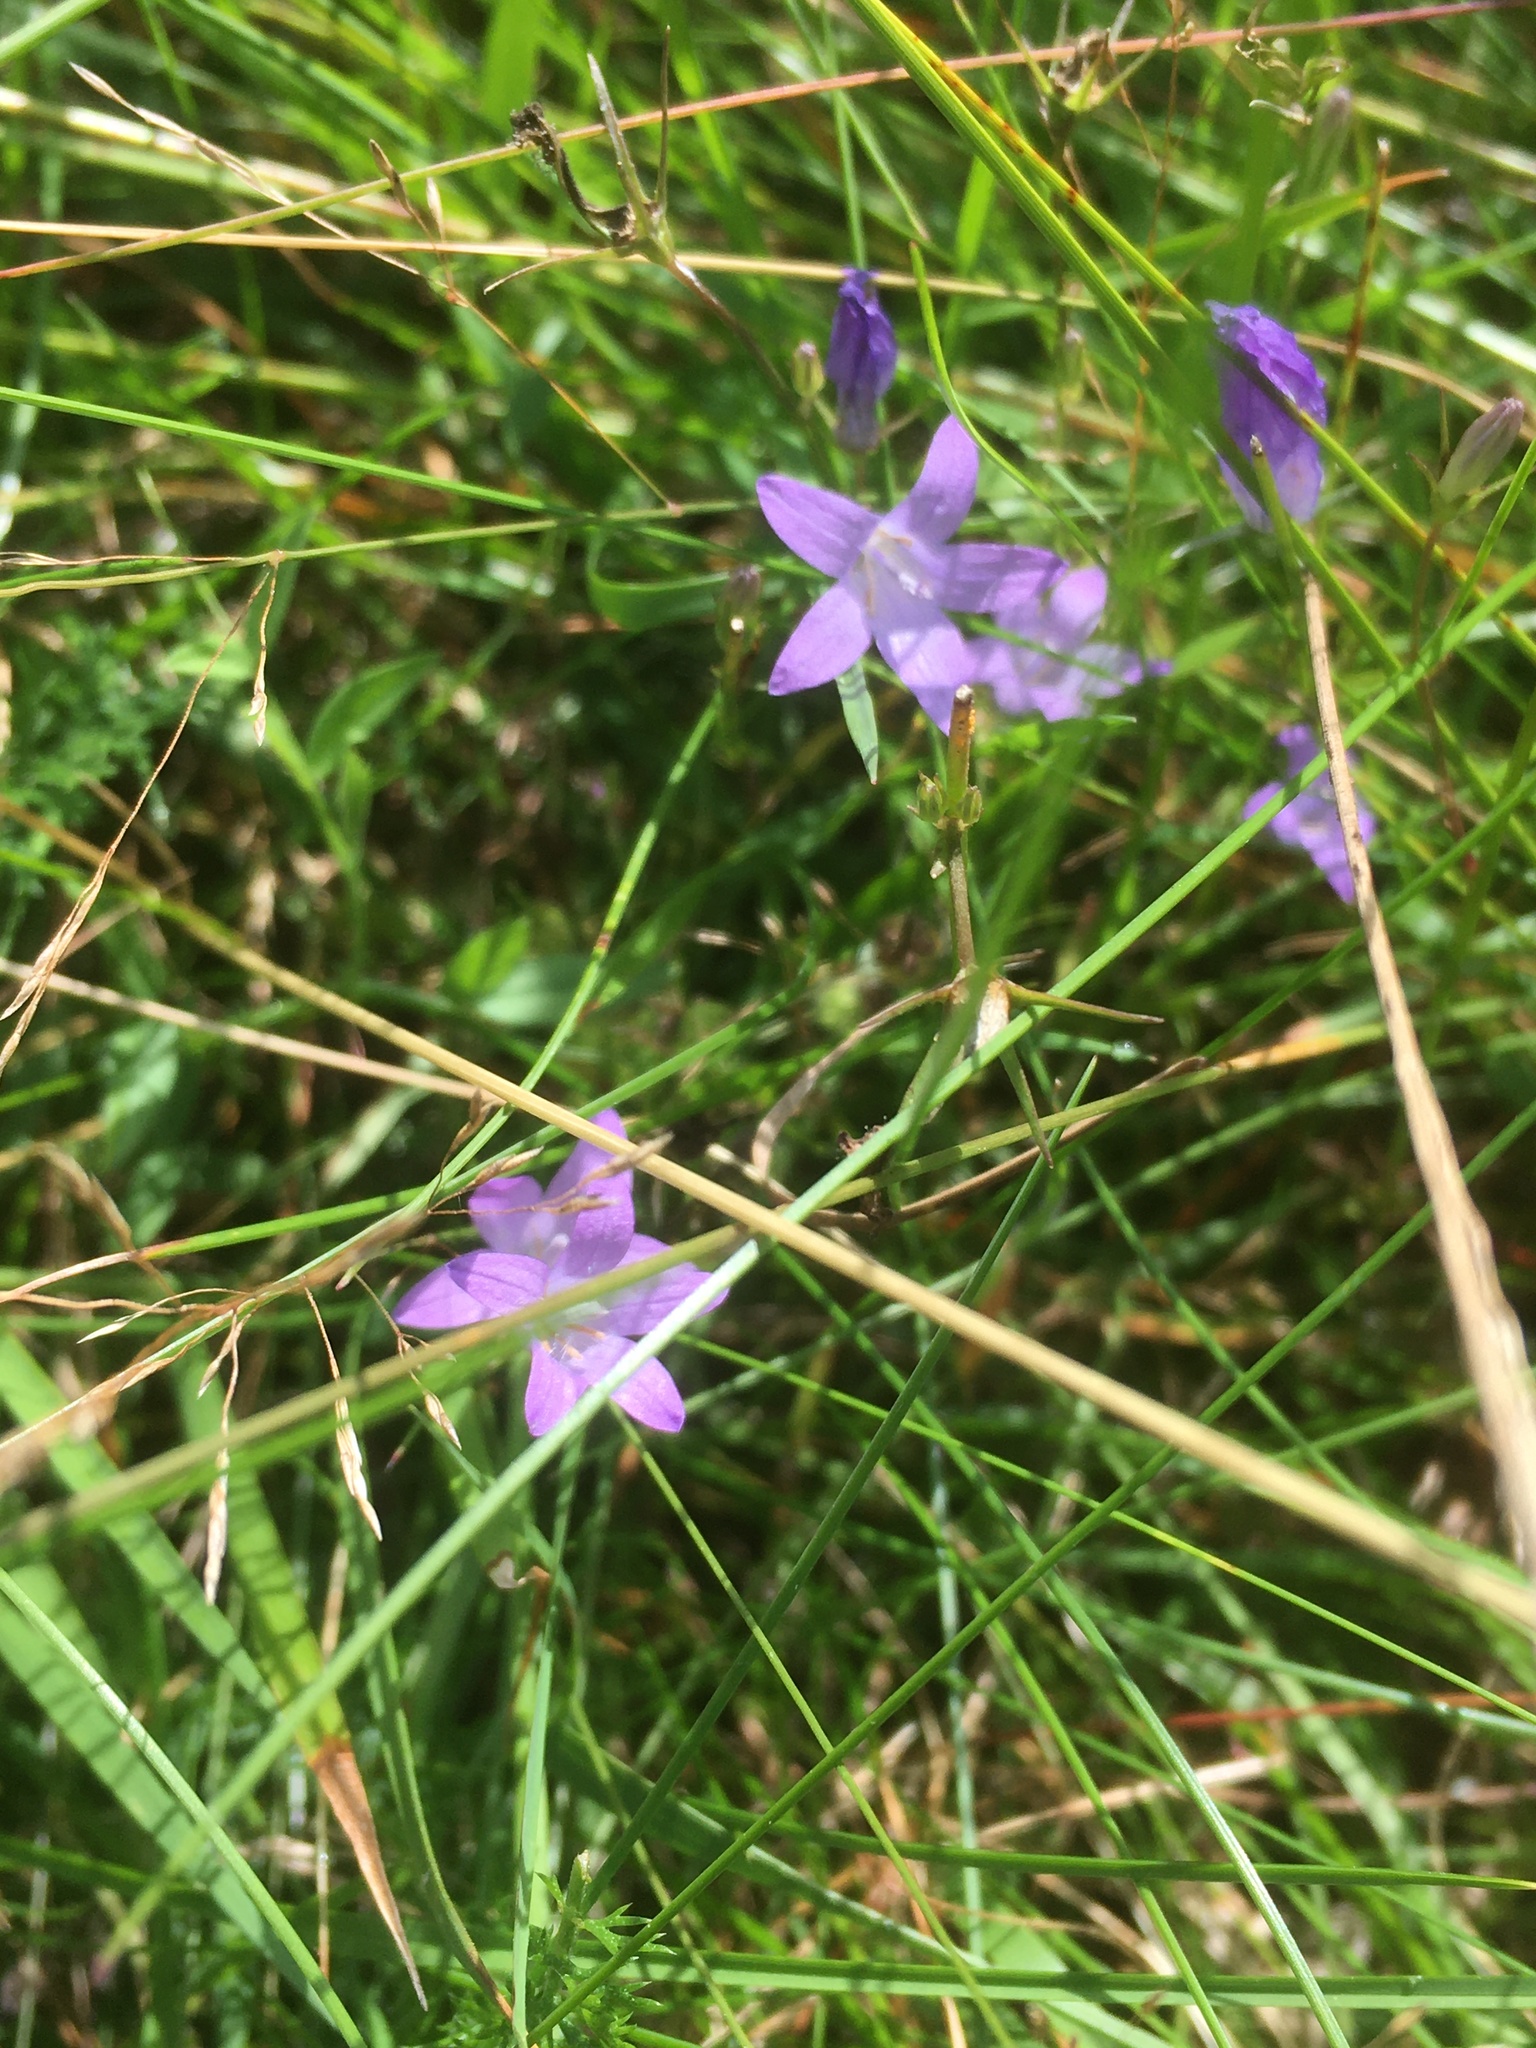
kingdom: Plantae
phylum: Tracheophyta
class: Magnoliopsida
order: Asterales
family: Campanulaceae
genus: Campanula
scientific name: Campanula rapunculus
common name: Rampion bellflower
